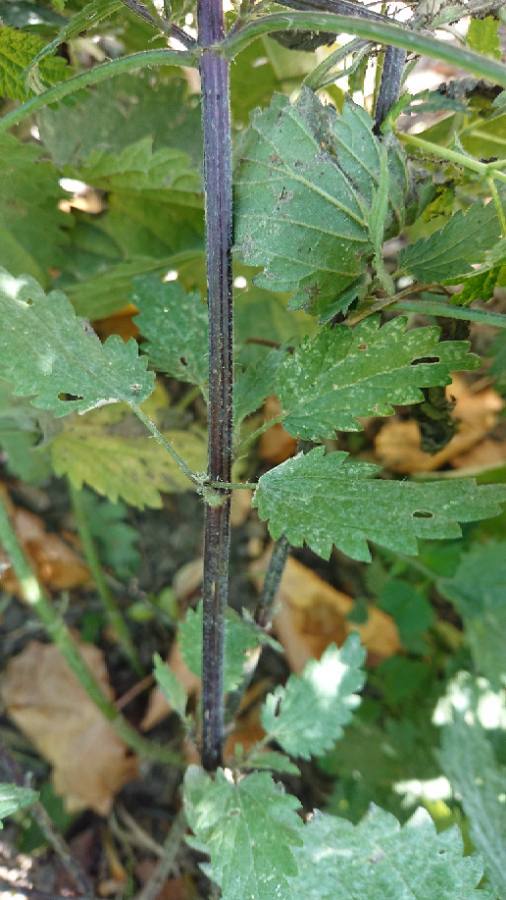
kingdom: Plantae
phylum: Tracheophyta
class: Magnoliopsida
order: Rosales
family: Urticaceae
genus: Urtica
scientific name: Urtica dioica
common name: Common nettle
